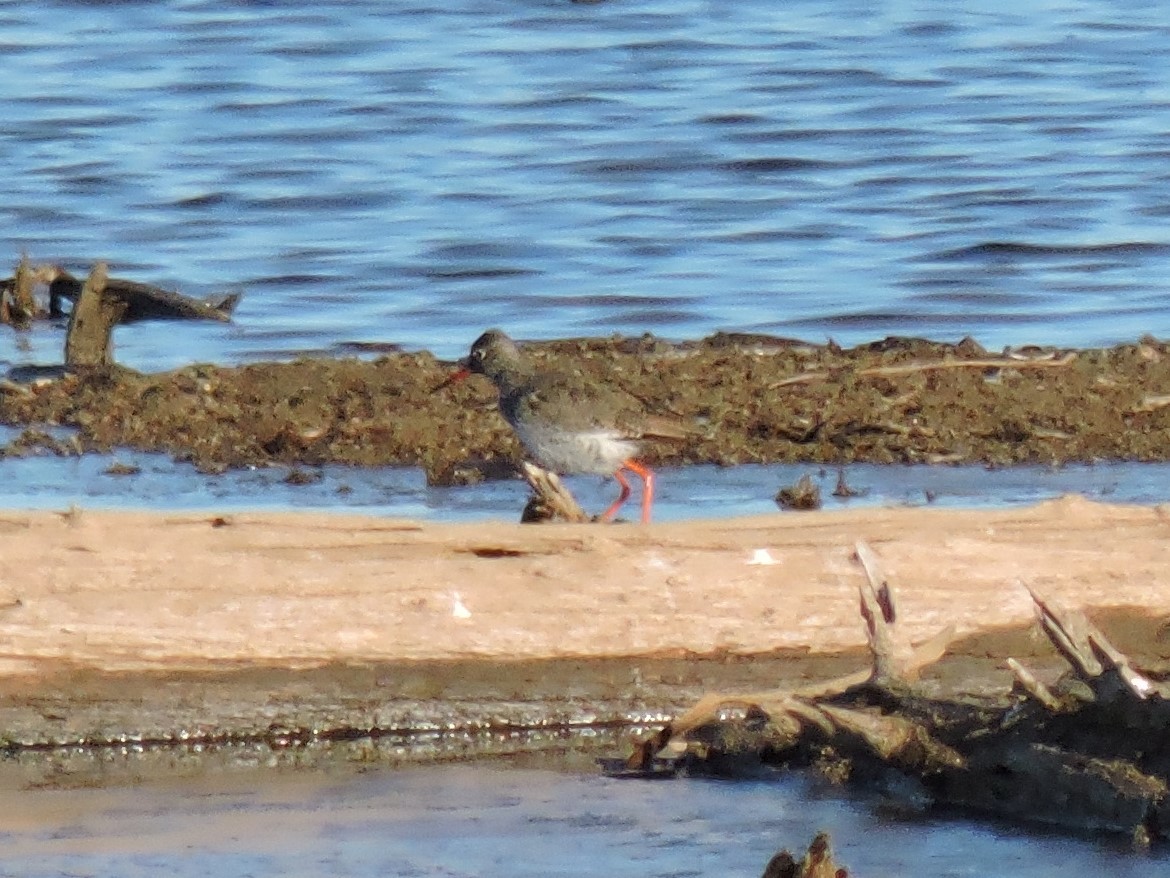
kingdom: Animalia
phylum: Chordata
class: Aves
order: Charadriiformes
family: Scolopacidae
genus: Tringa
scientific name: Tringa totanus
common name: Common redshank
